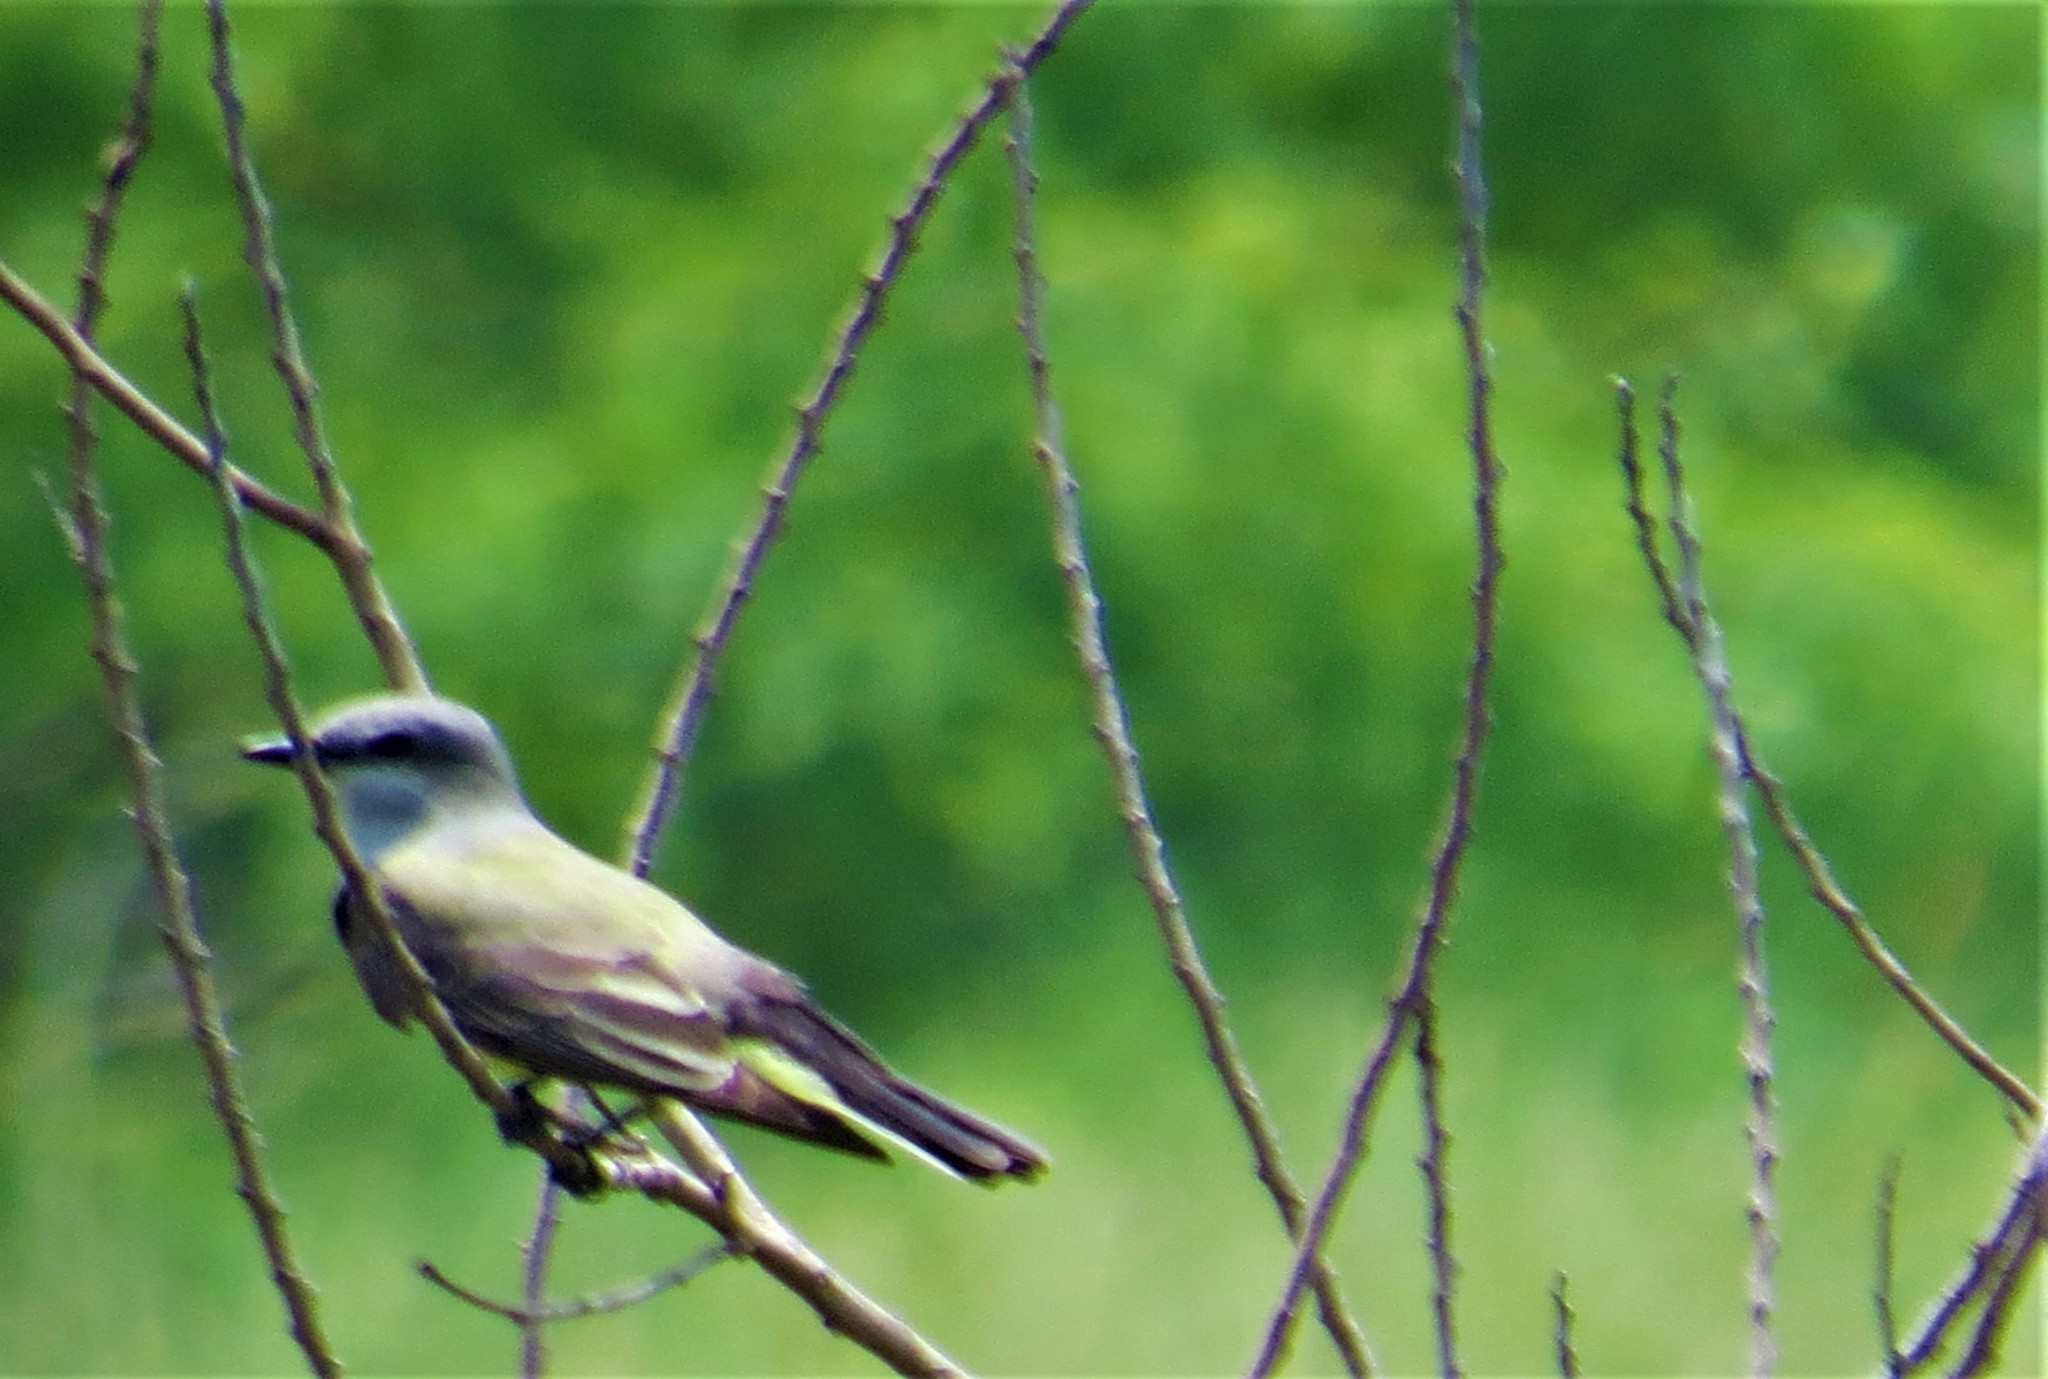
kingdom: Animalia
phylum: Chordata
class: Aves
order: Passeriformes
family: Tyrannidae
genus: Tyrannus
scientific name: Tyrannus verticalis
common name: Western kingbird
